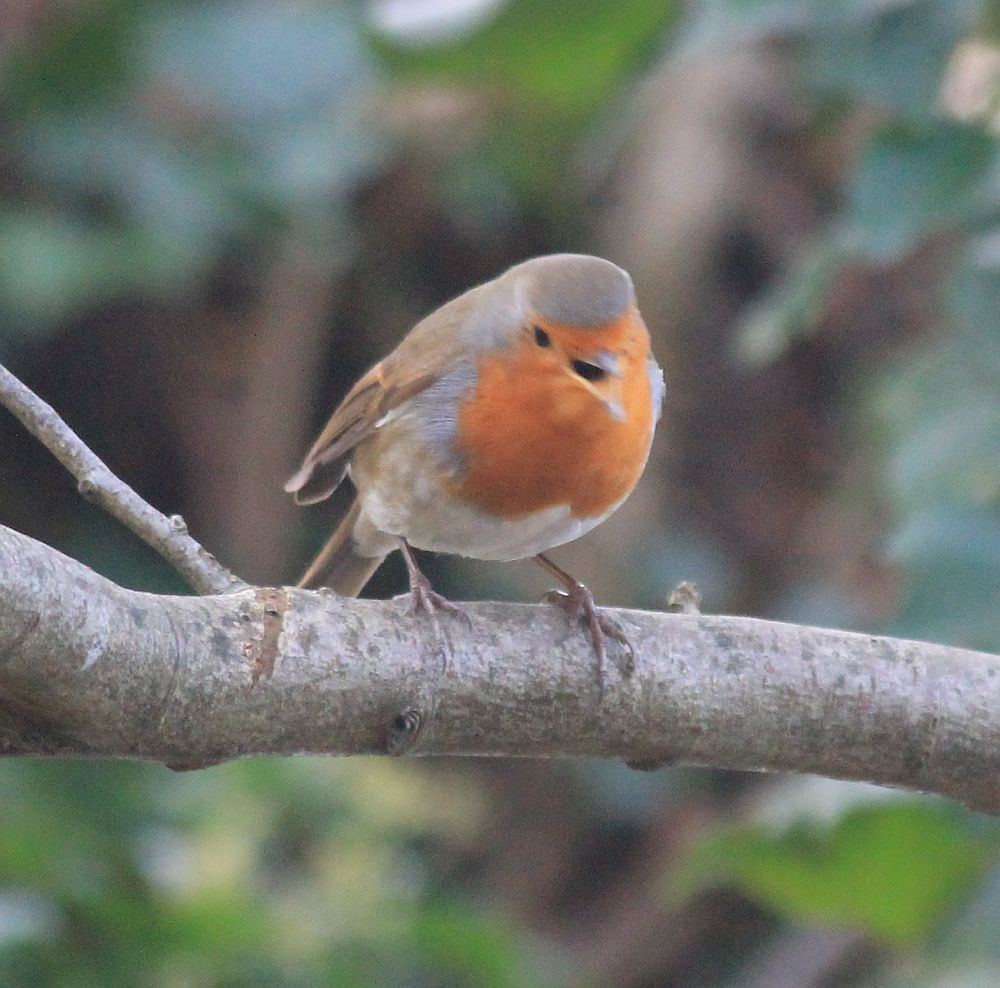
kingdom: Animalia
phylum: Chordata
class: Aves
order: Passeriformes
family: Muscicapidae
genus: Erithacus
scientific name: Erithacus rubecula
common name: European robin
